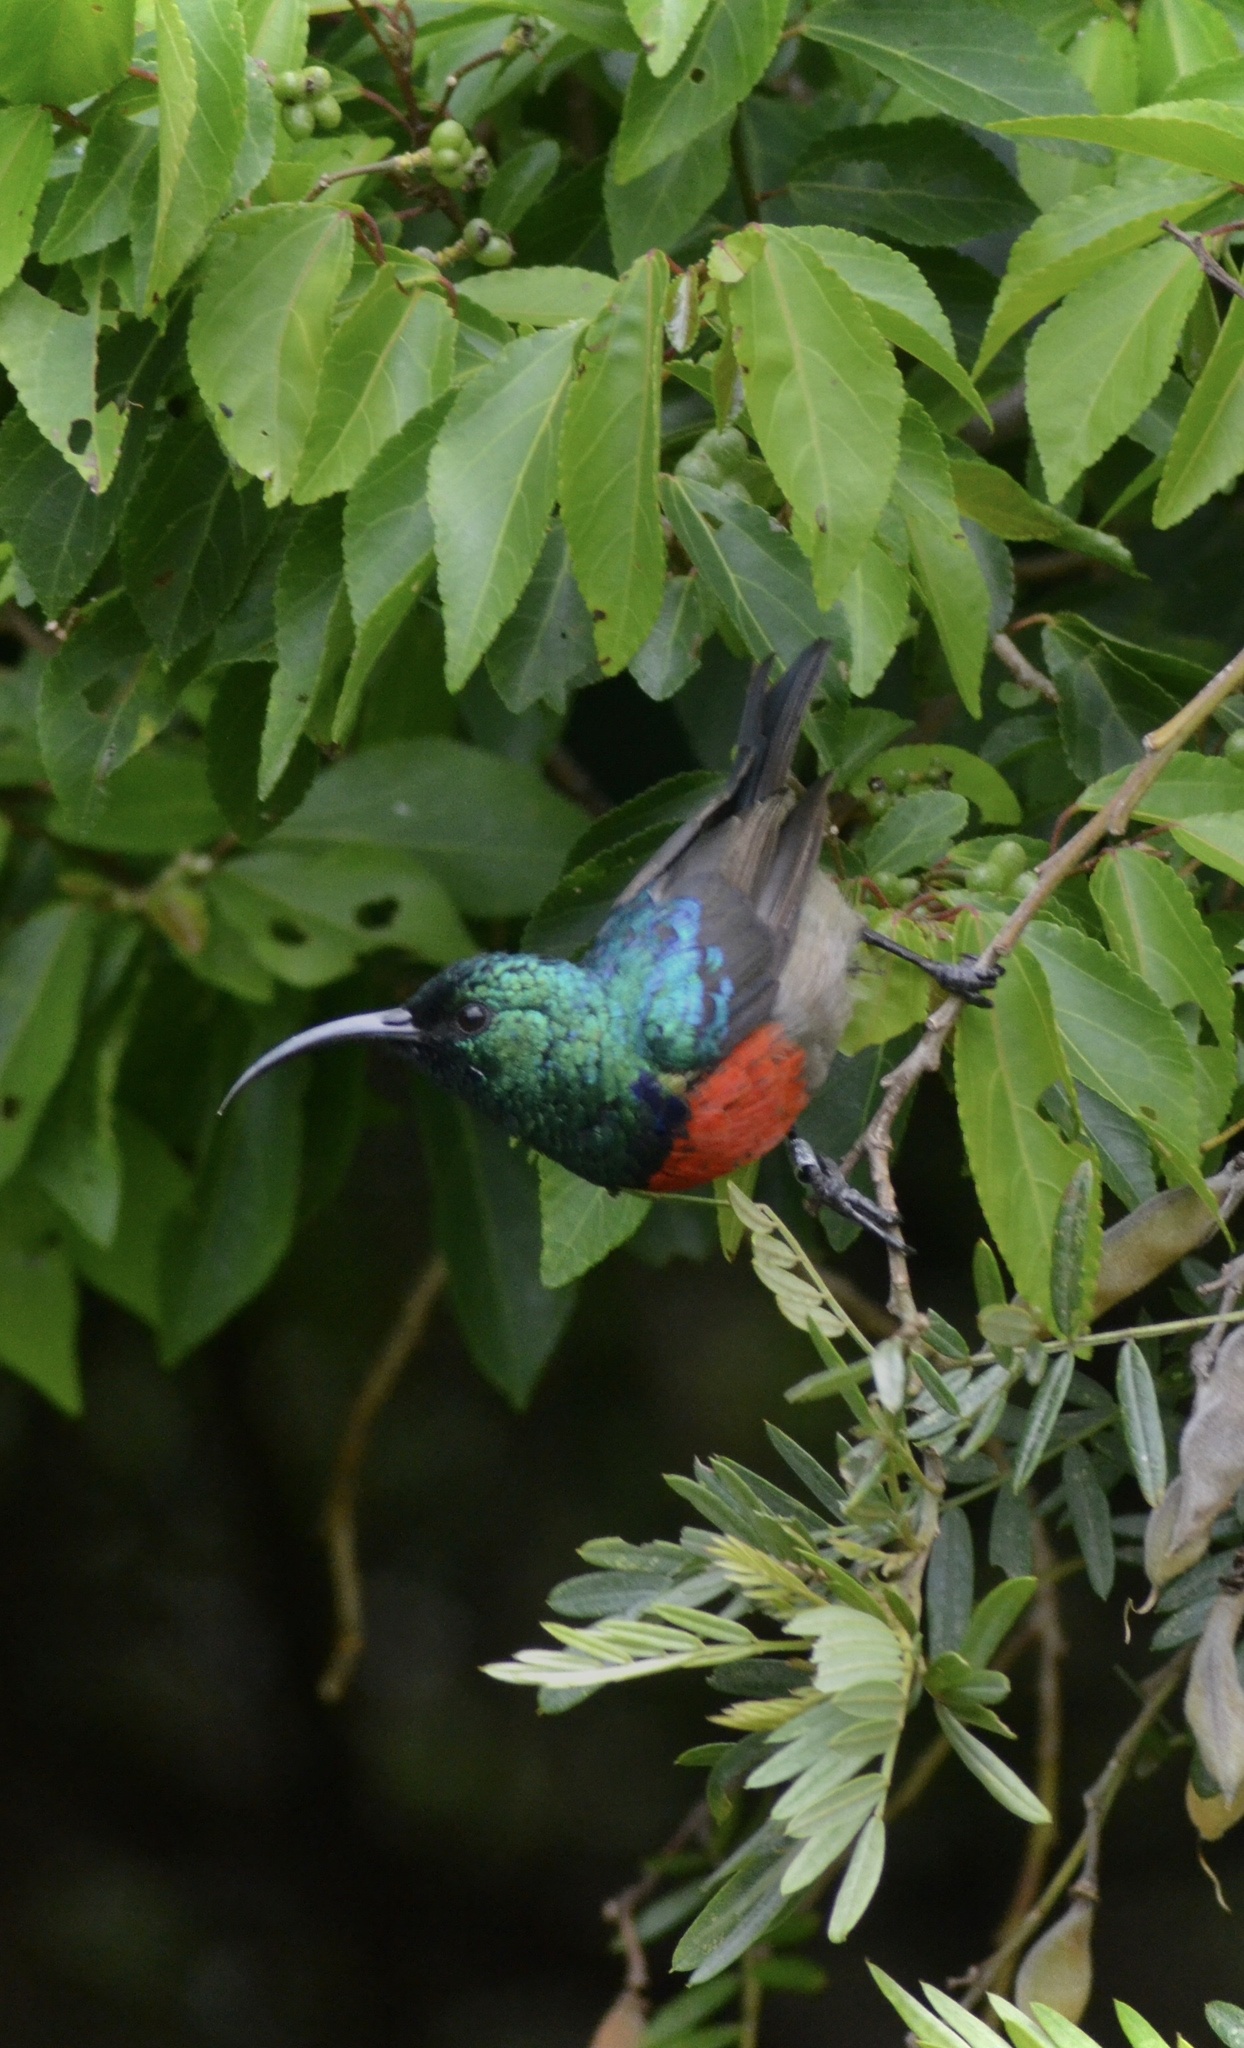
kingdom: Animalia
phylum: Chordata
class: Aves
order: Passeriformes
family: Nectariniidae
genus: Cinnyris
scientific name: Cinnyris afer
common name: Greater double-collared sunbird
